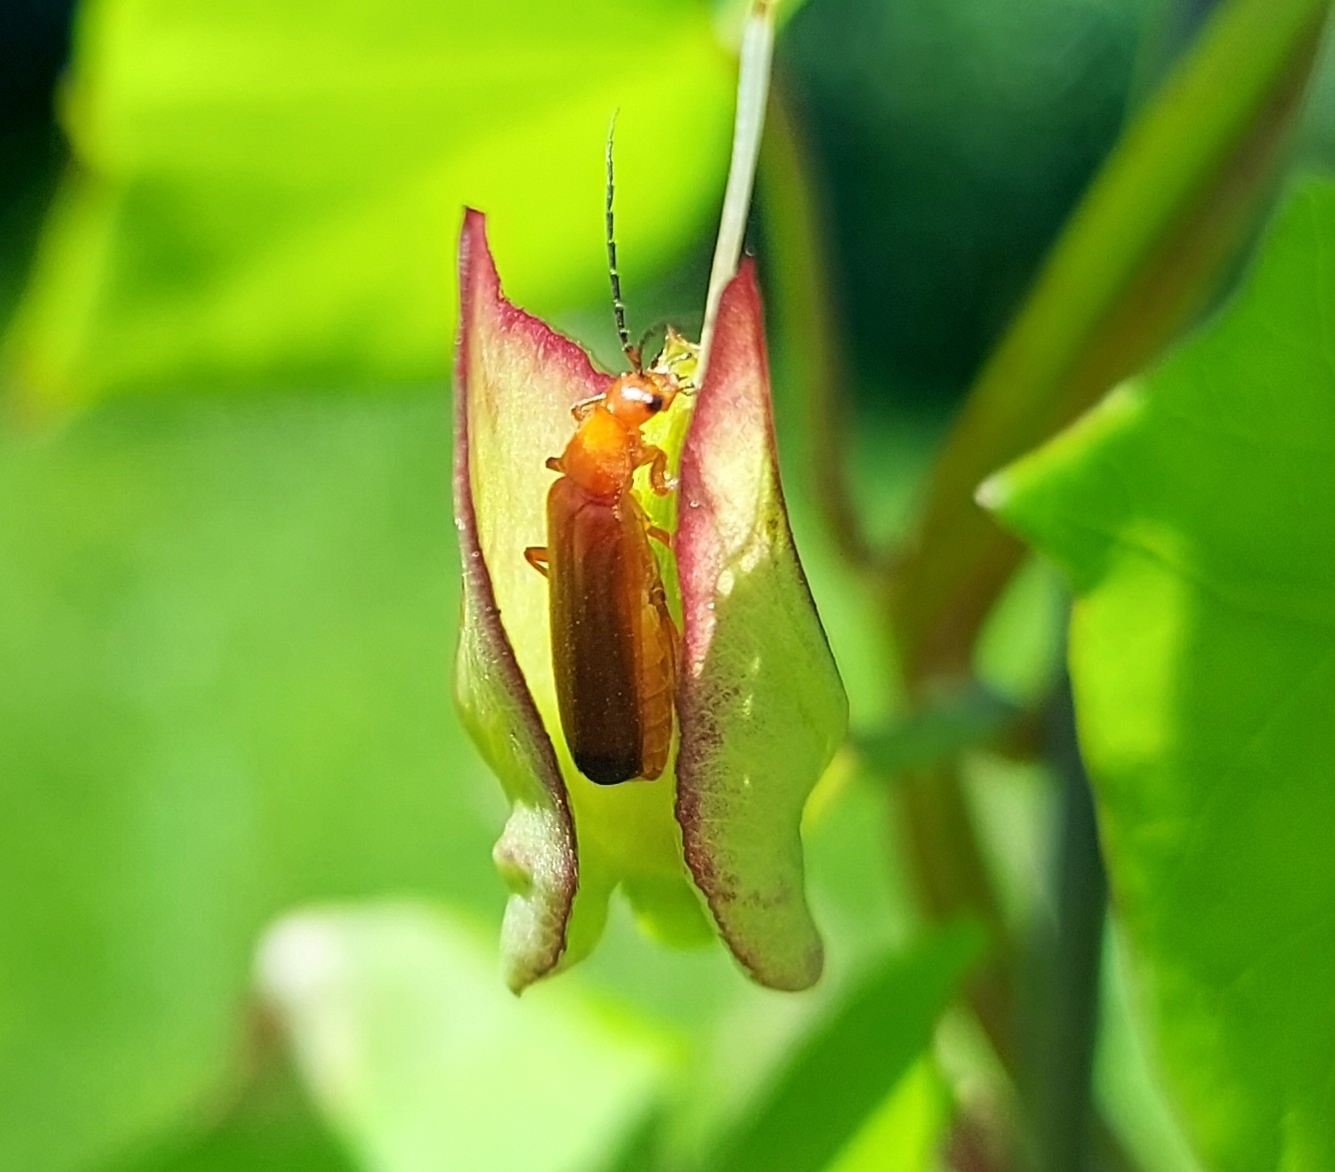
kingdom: Animalia
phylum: Arthropoda
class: Insecta
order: Coleoptera
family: Cantharidae
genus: Rhagonycha
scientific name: Rhagonycha fulva
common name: Common red soldier beetle
